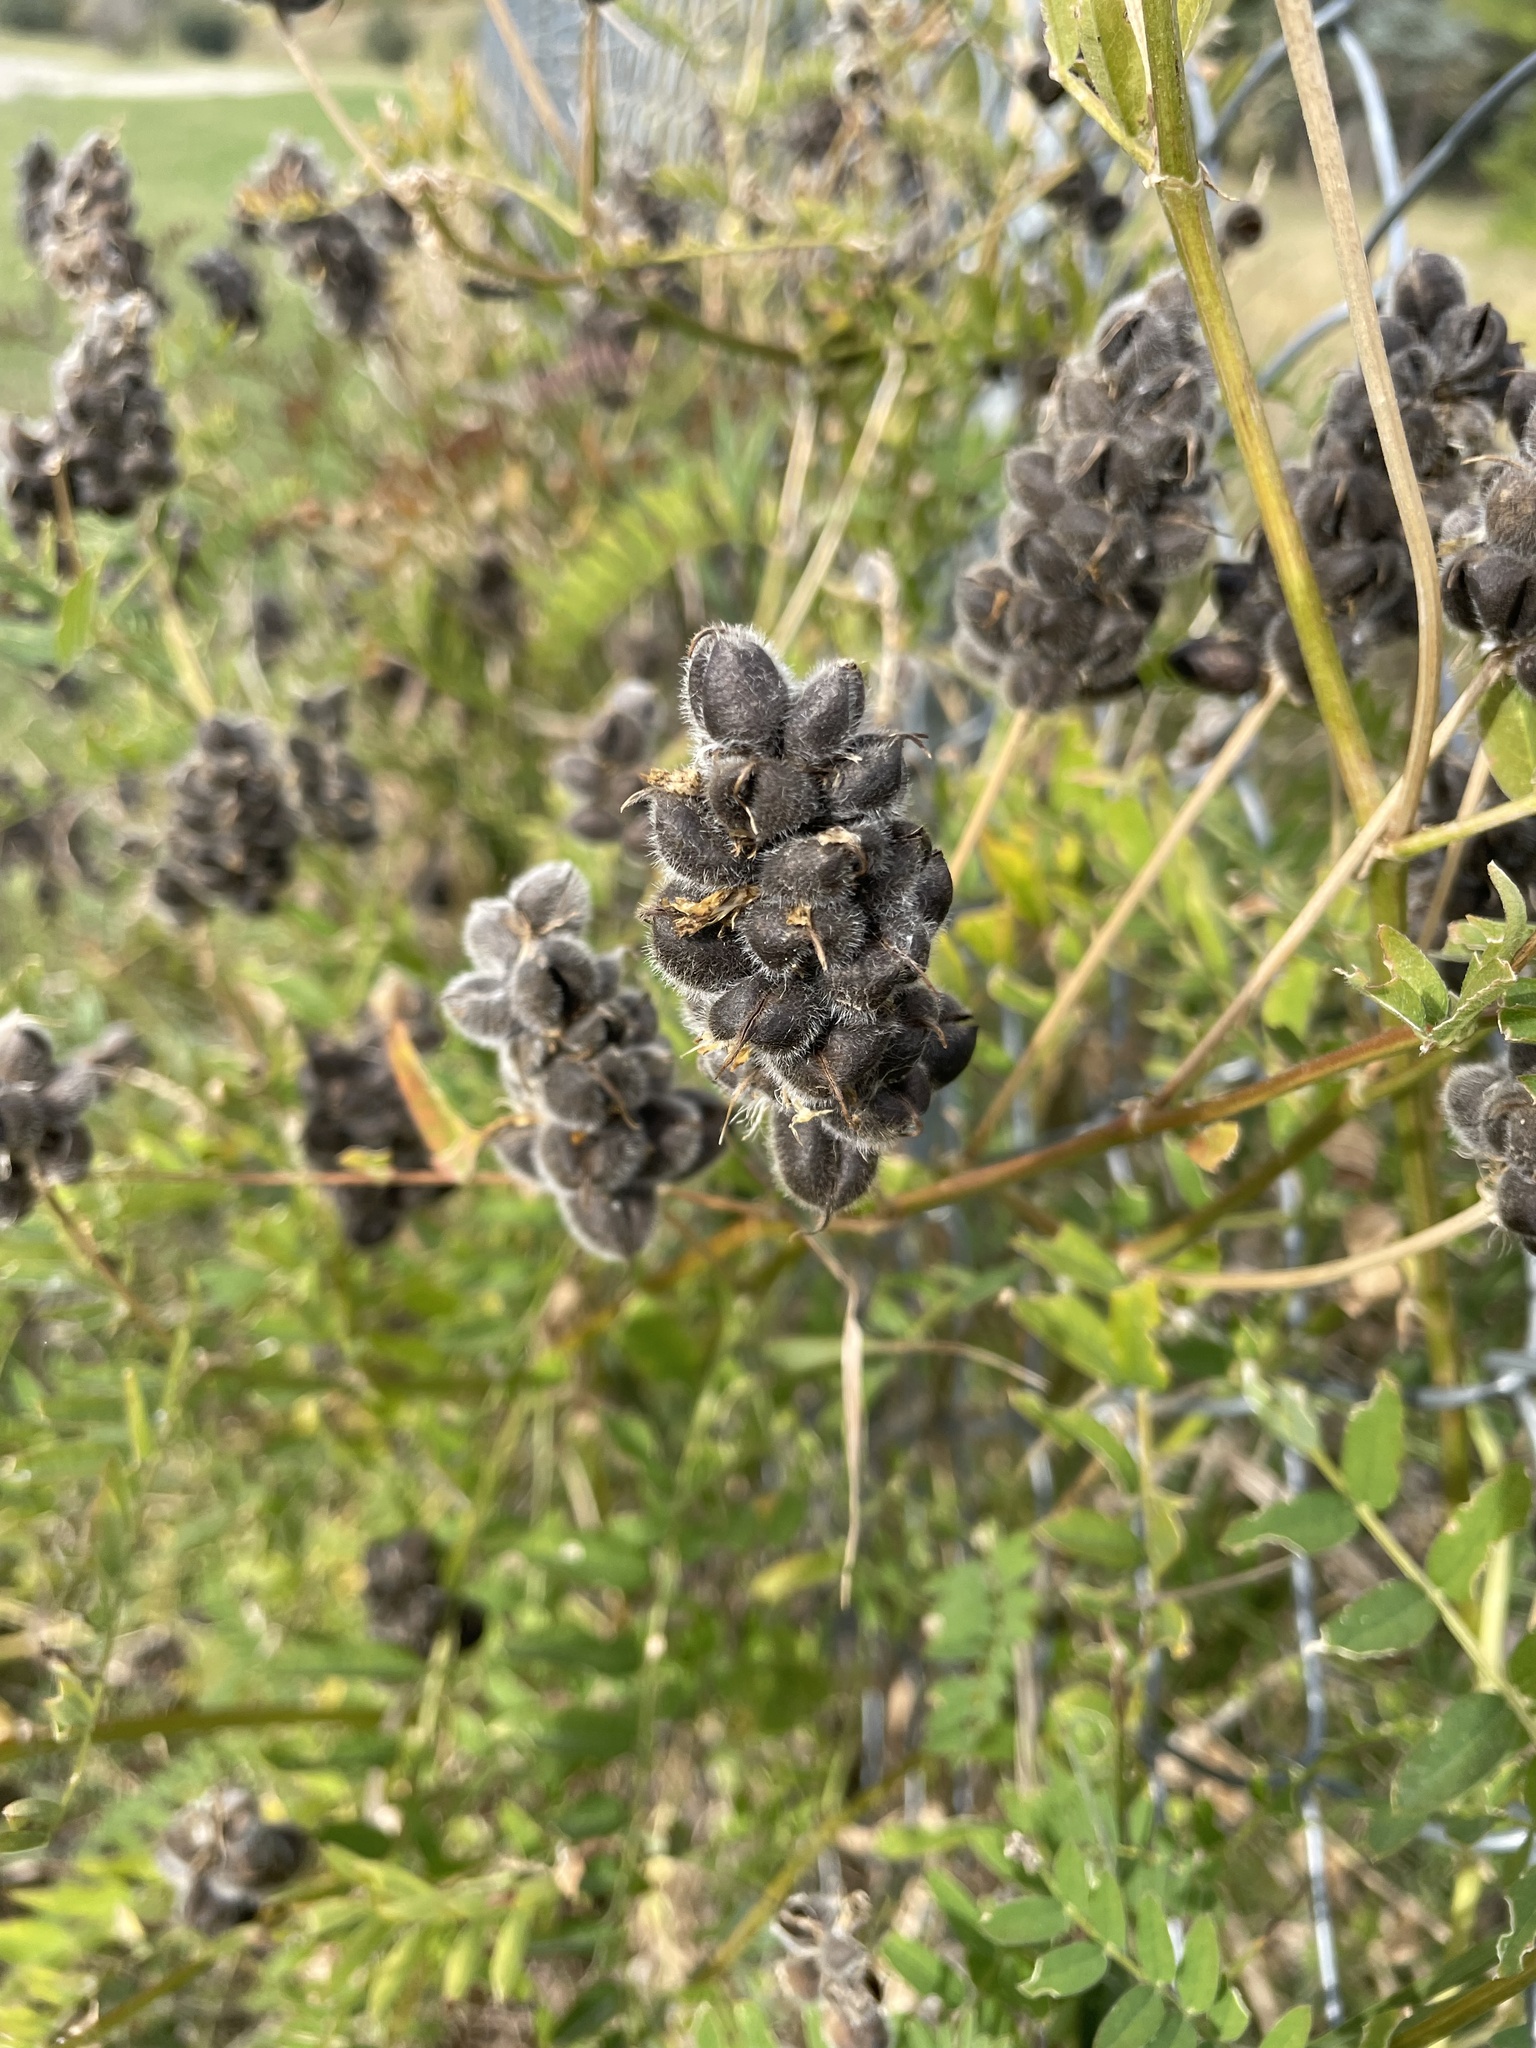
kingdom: Plantae
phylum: Tracheophyta
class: Magnoliopsida
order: Fabales
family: Fabaceae
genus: Astragalus
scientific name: Astragalus cicer
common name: Chick-pea milk-vetch
